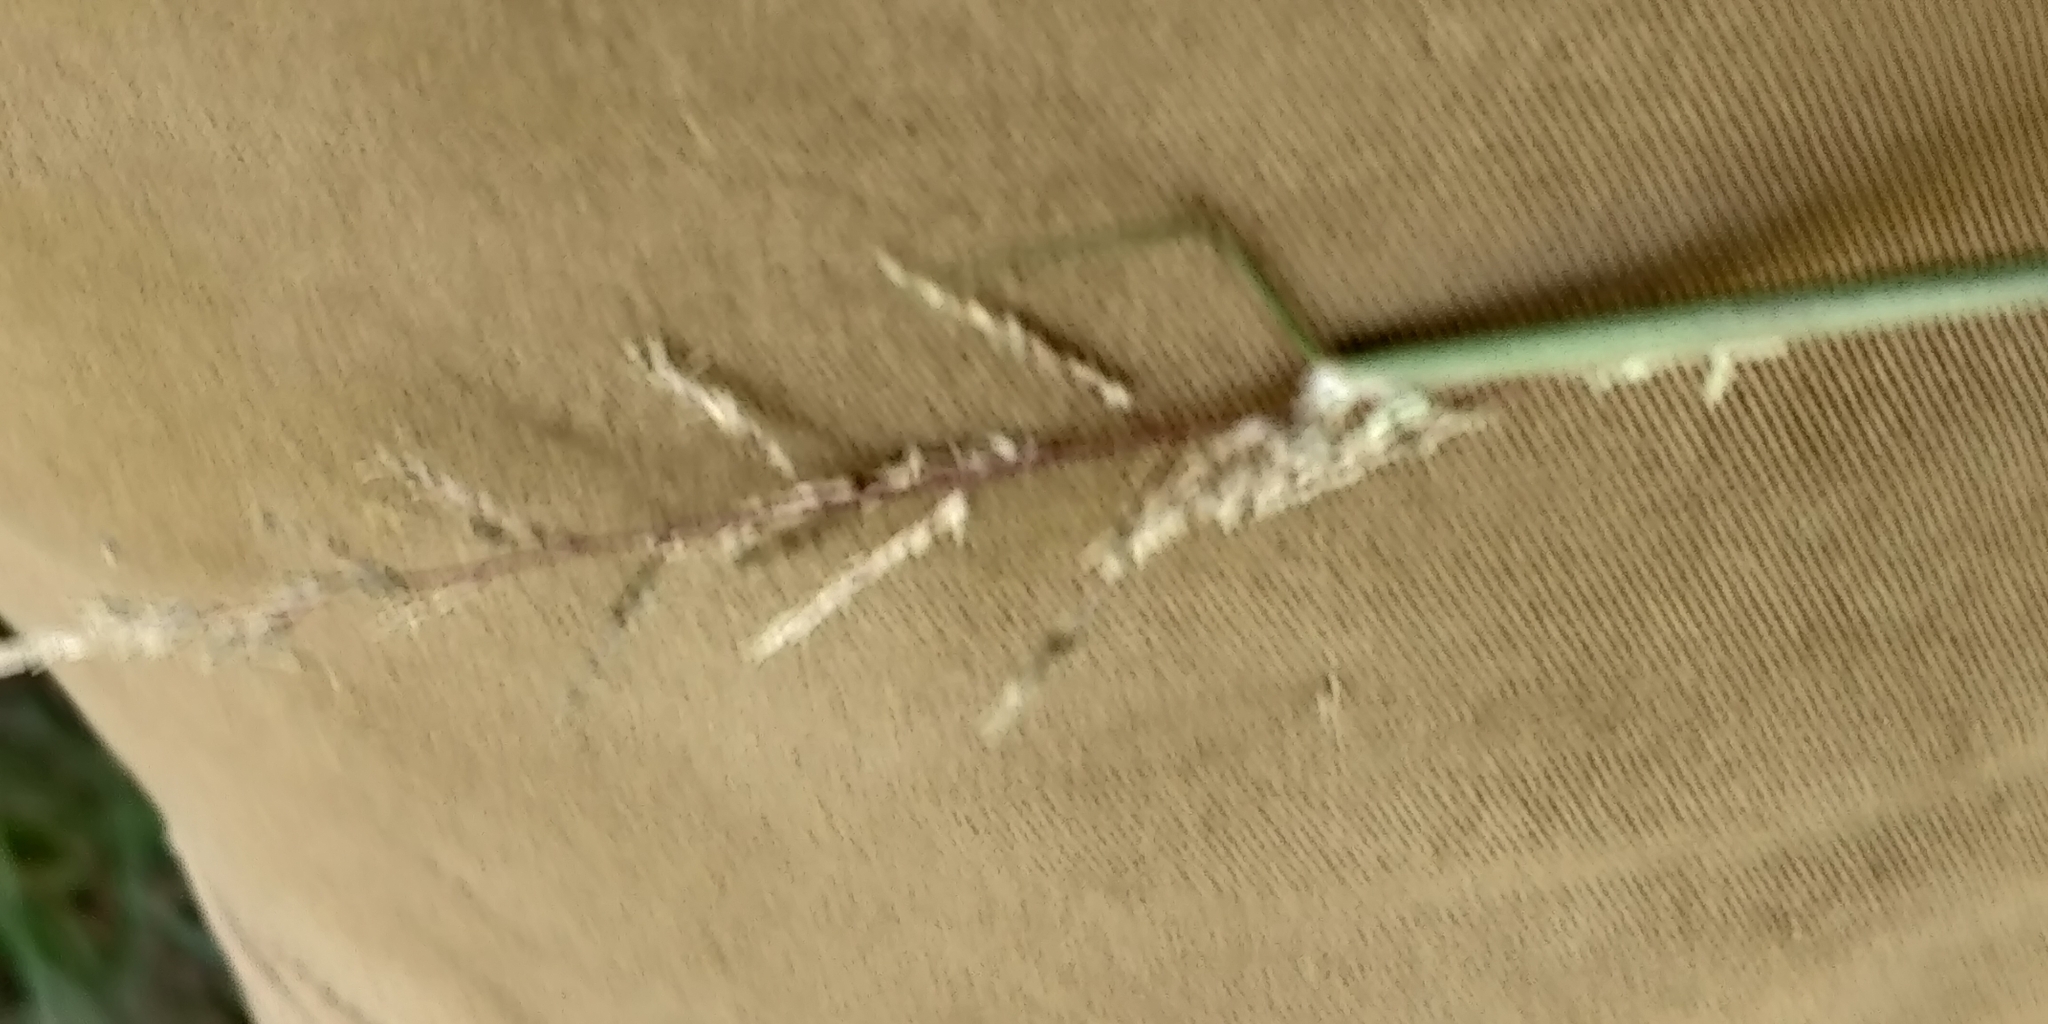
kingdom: Plantae
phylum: Tracheophyta
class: Liliopsida
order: Poales
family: Poaceae
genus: Sporobolus
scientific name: Sporobolus cryptandrus
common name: Sand dropseed
